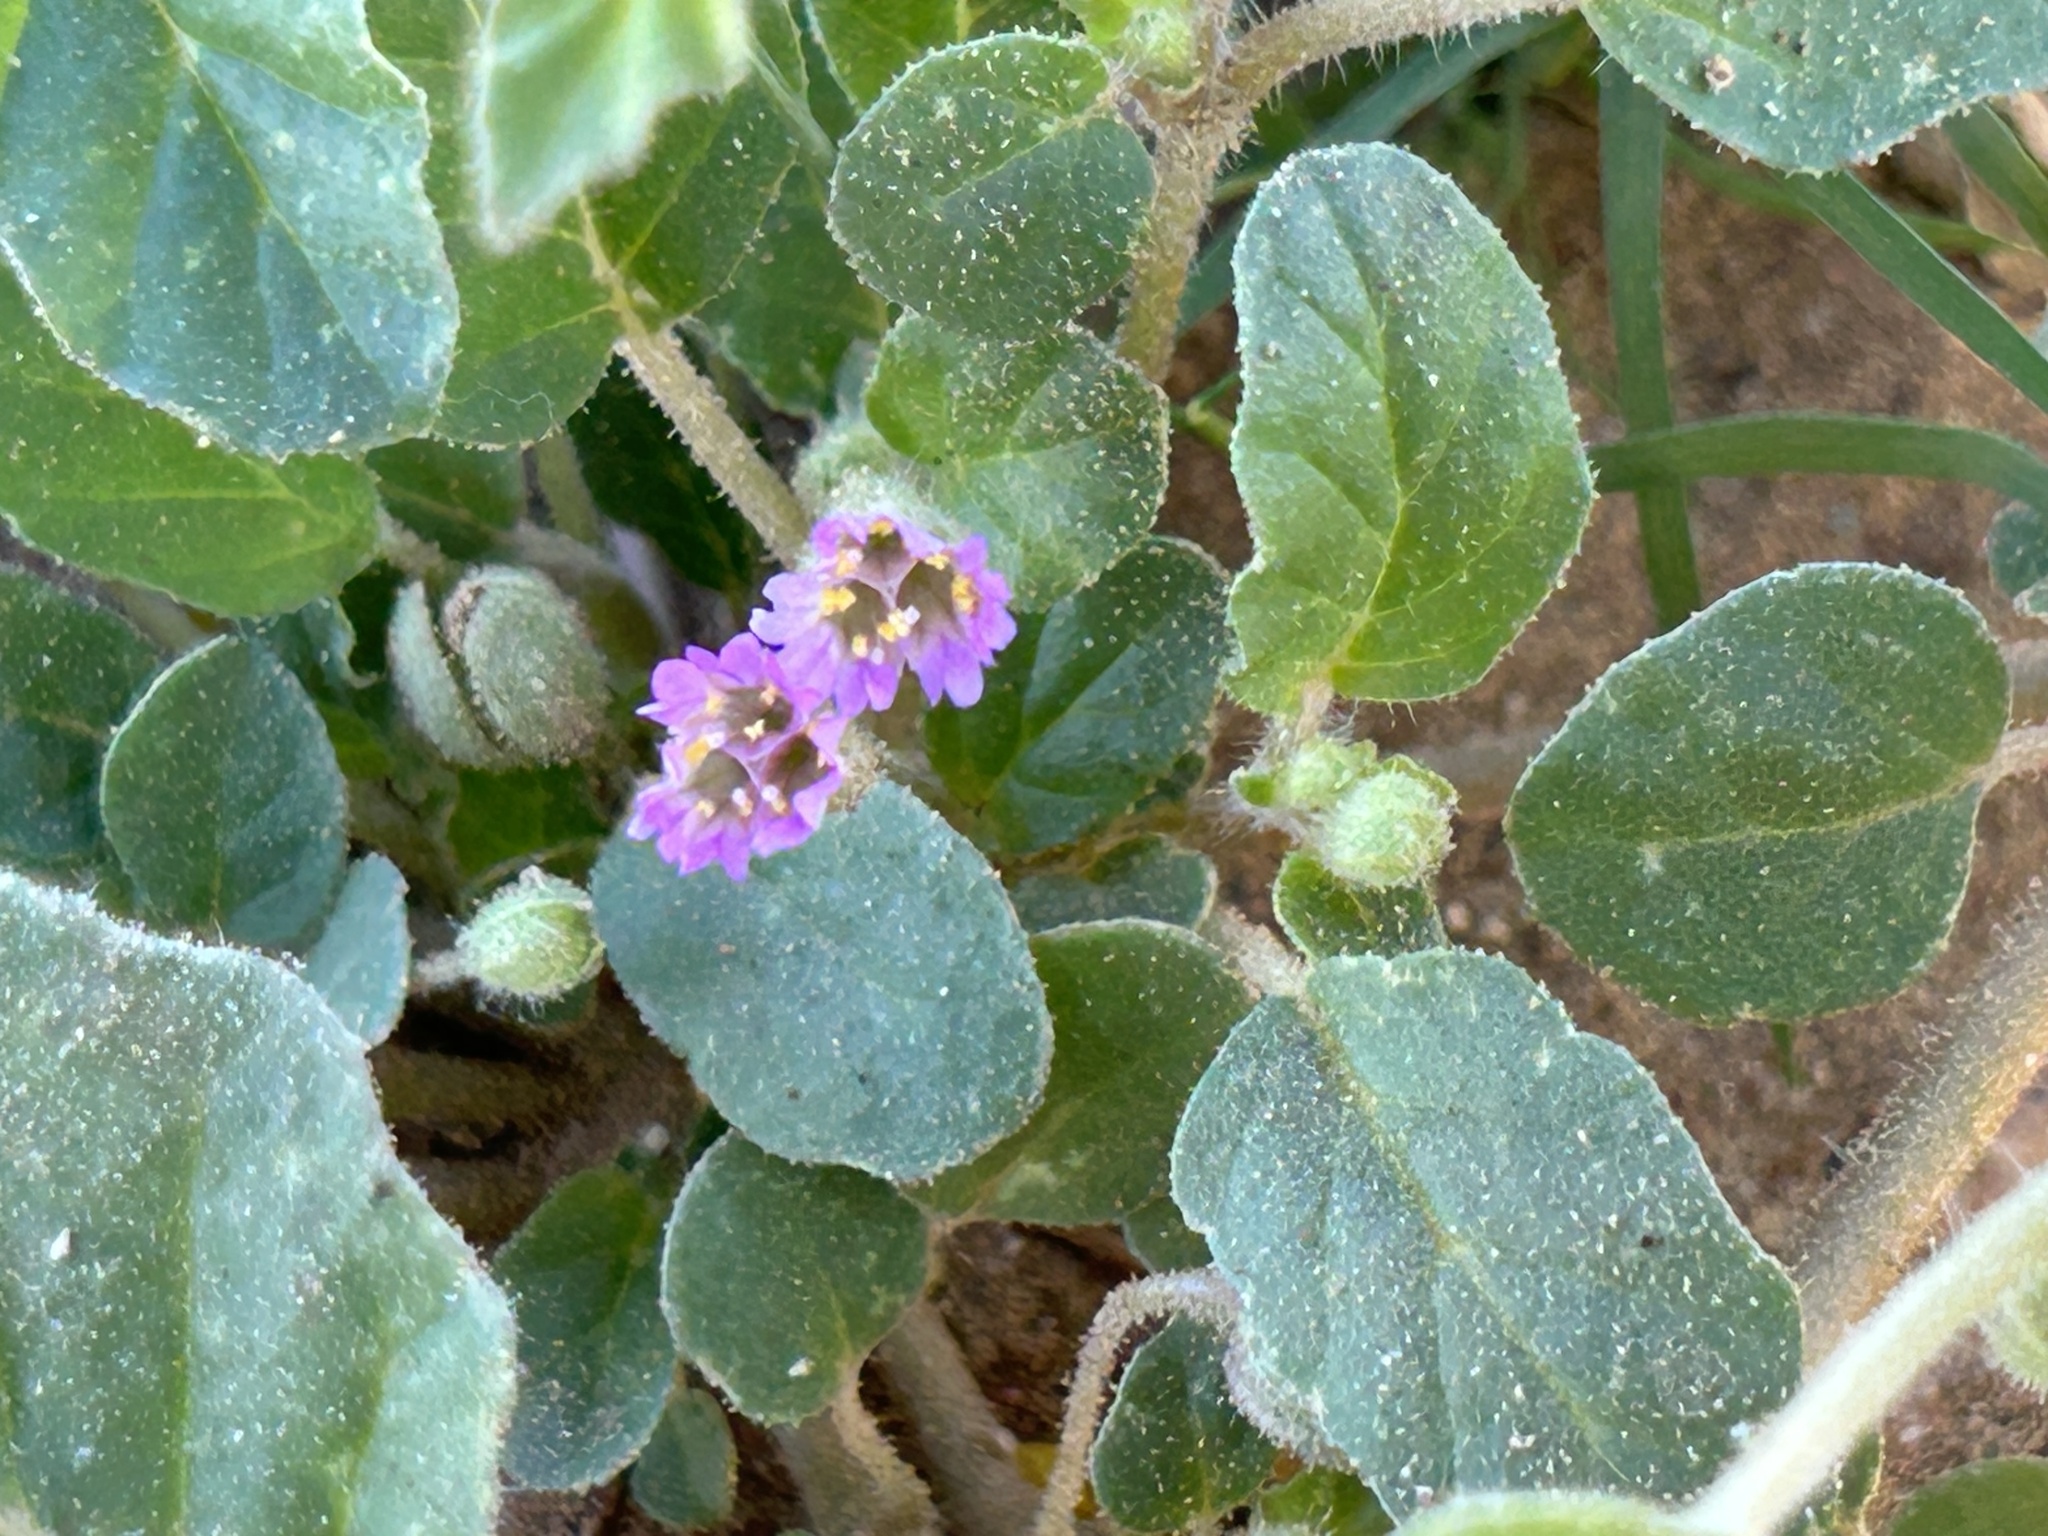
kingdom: Plantae
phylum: Tracheophyta
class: Magnoliopsida
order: Caryophyllales
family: Nyctaginaceae
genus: Allionia
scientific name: Allionia incarnata
